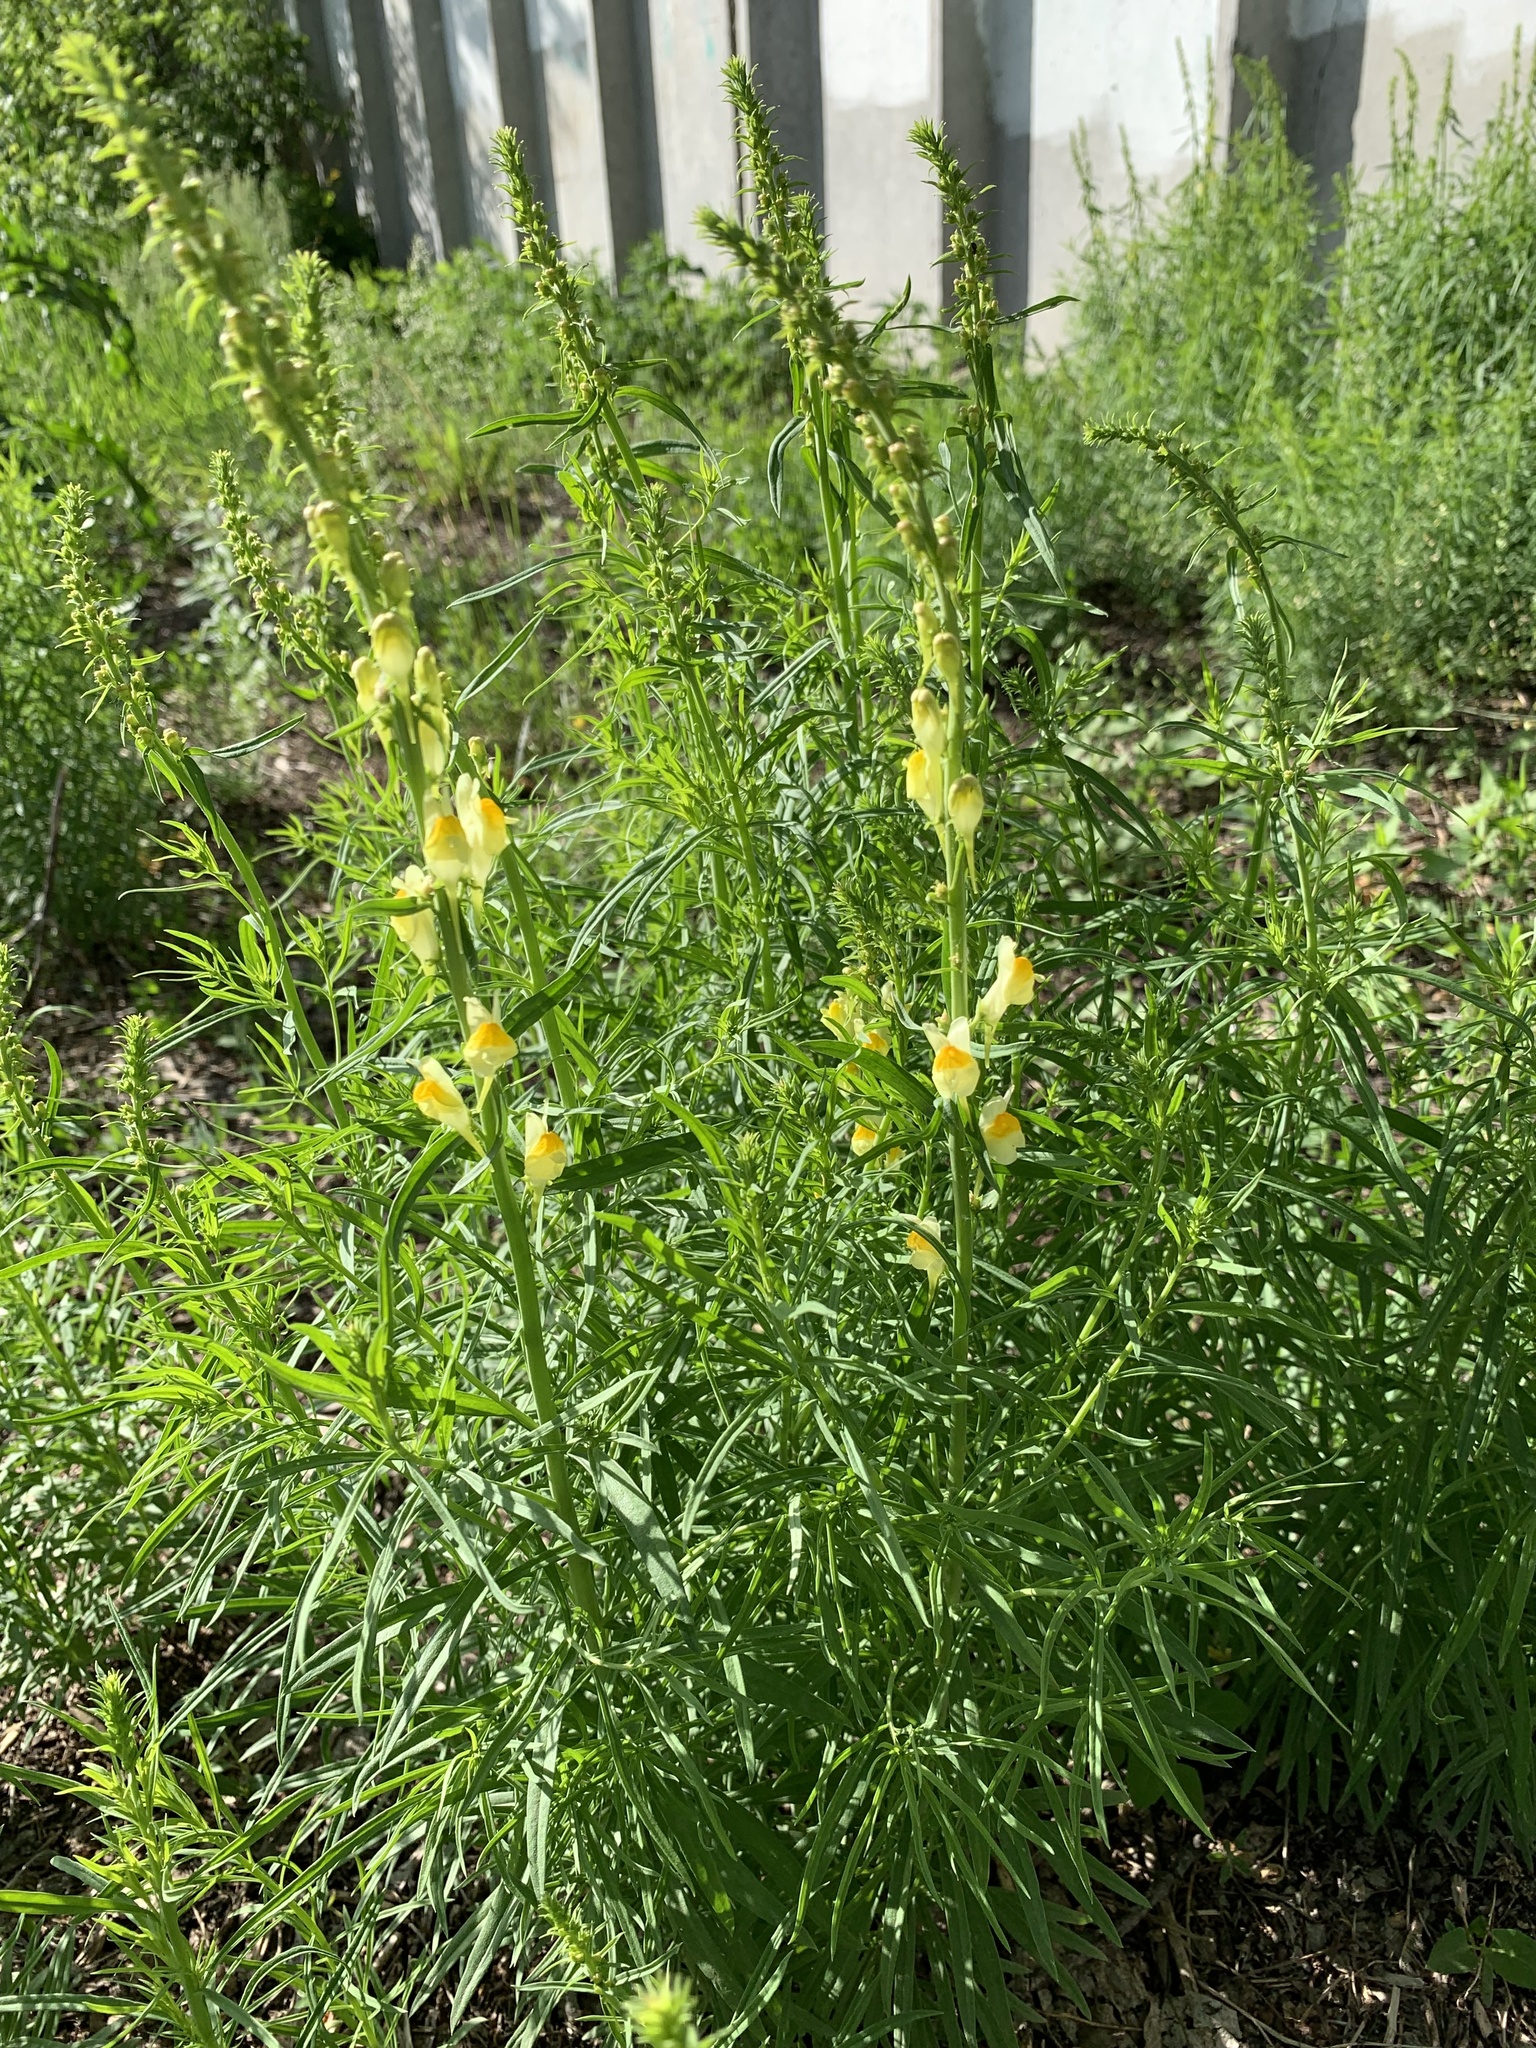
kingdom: Plantae
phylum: Tracheophyta
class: Magnoliopsida
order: Lamiales
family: Plantaginaceae
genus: Linaria
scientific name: Linaria vulgaris
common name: Butter and eggs
